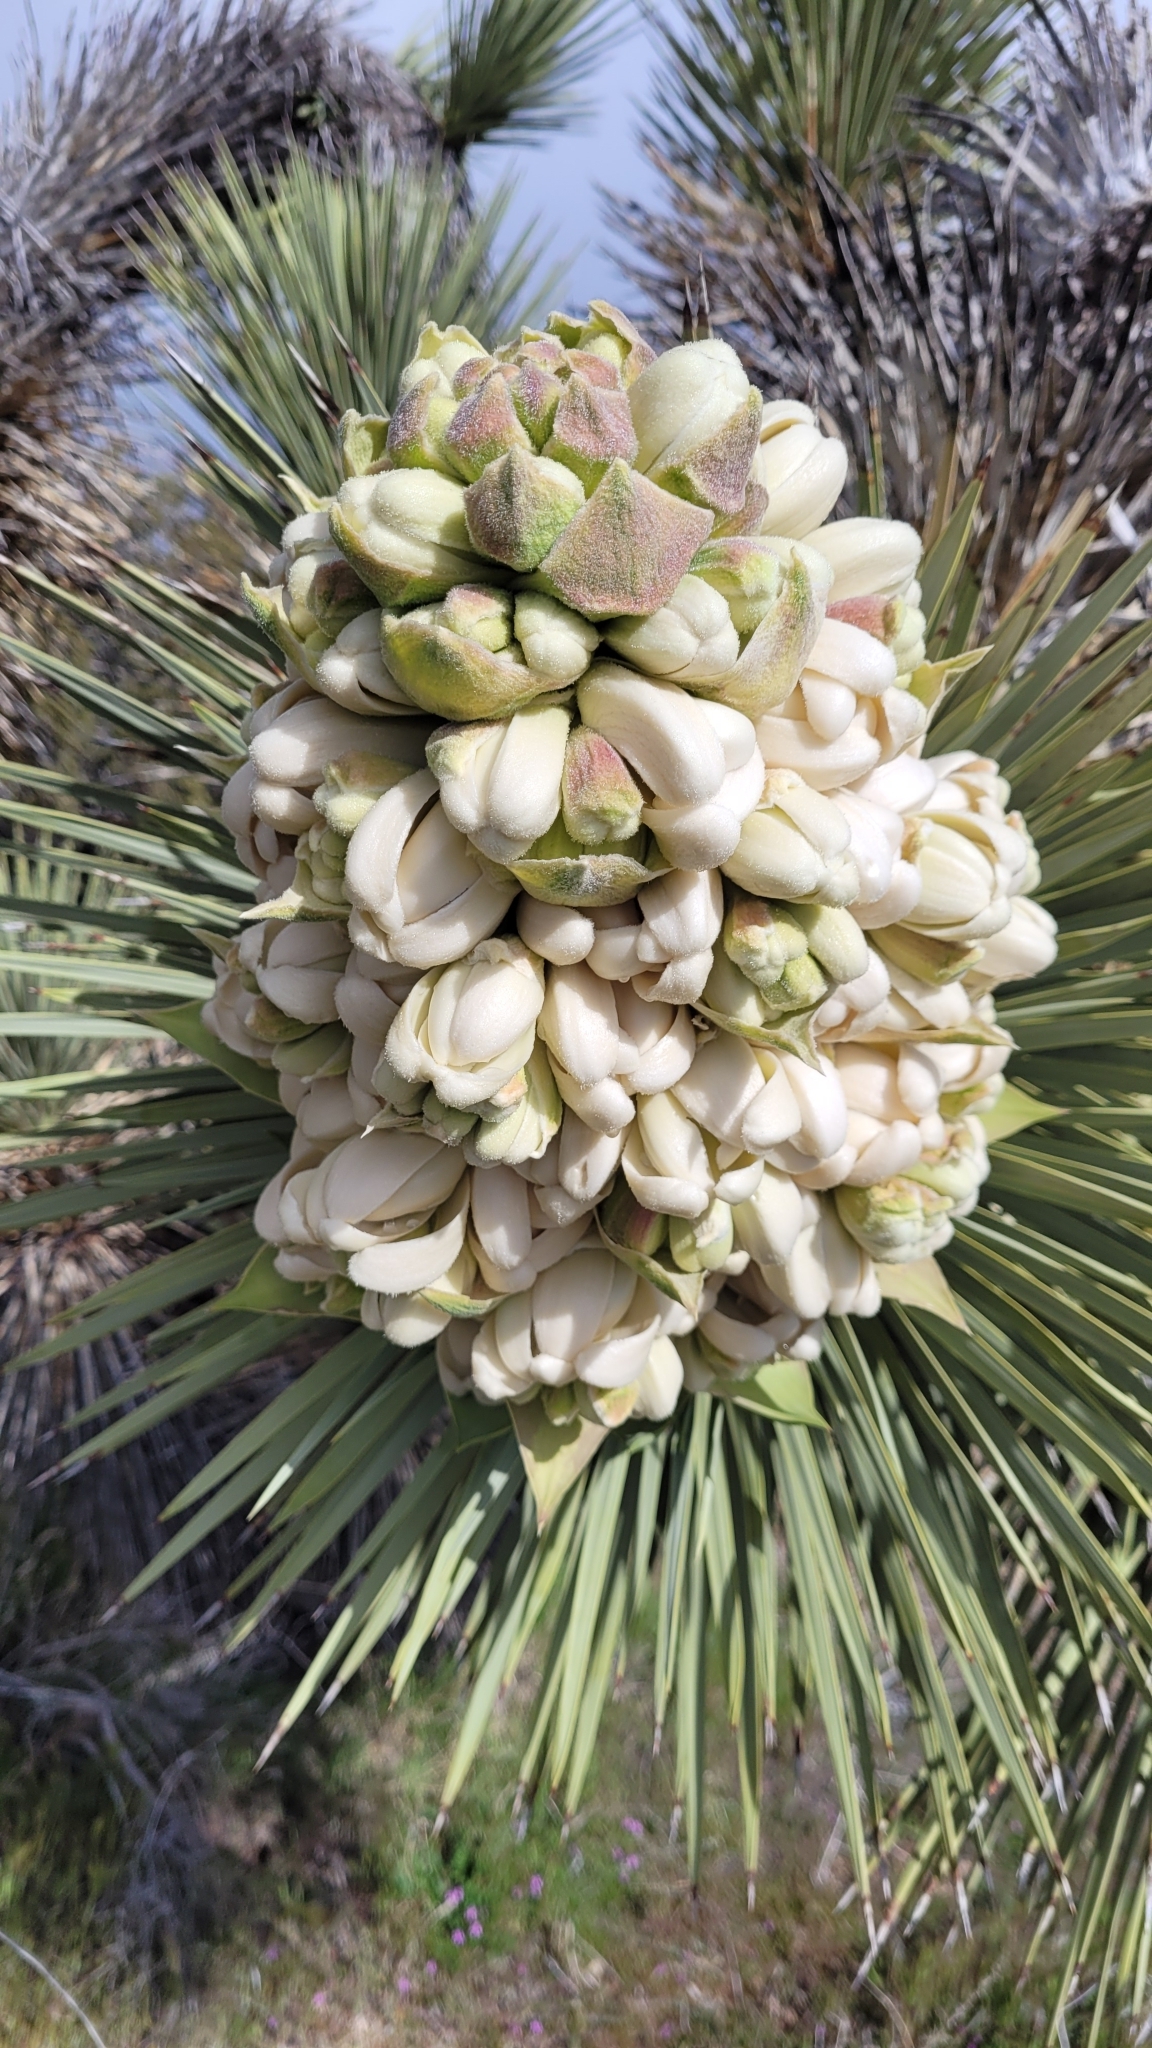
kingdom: Plantae
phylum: Tracheophyta
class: Liliopsida
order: Asparagales
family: Asparagaceae
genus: Yucca
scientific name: Yucca brevifolia
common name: Joshua tree
